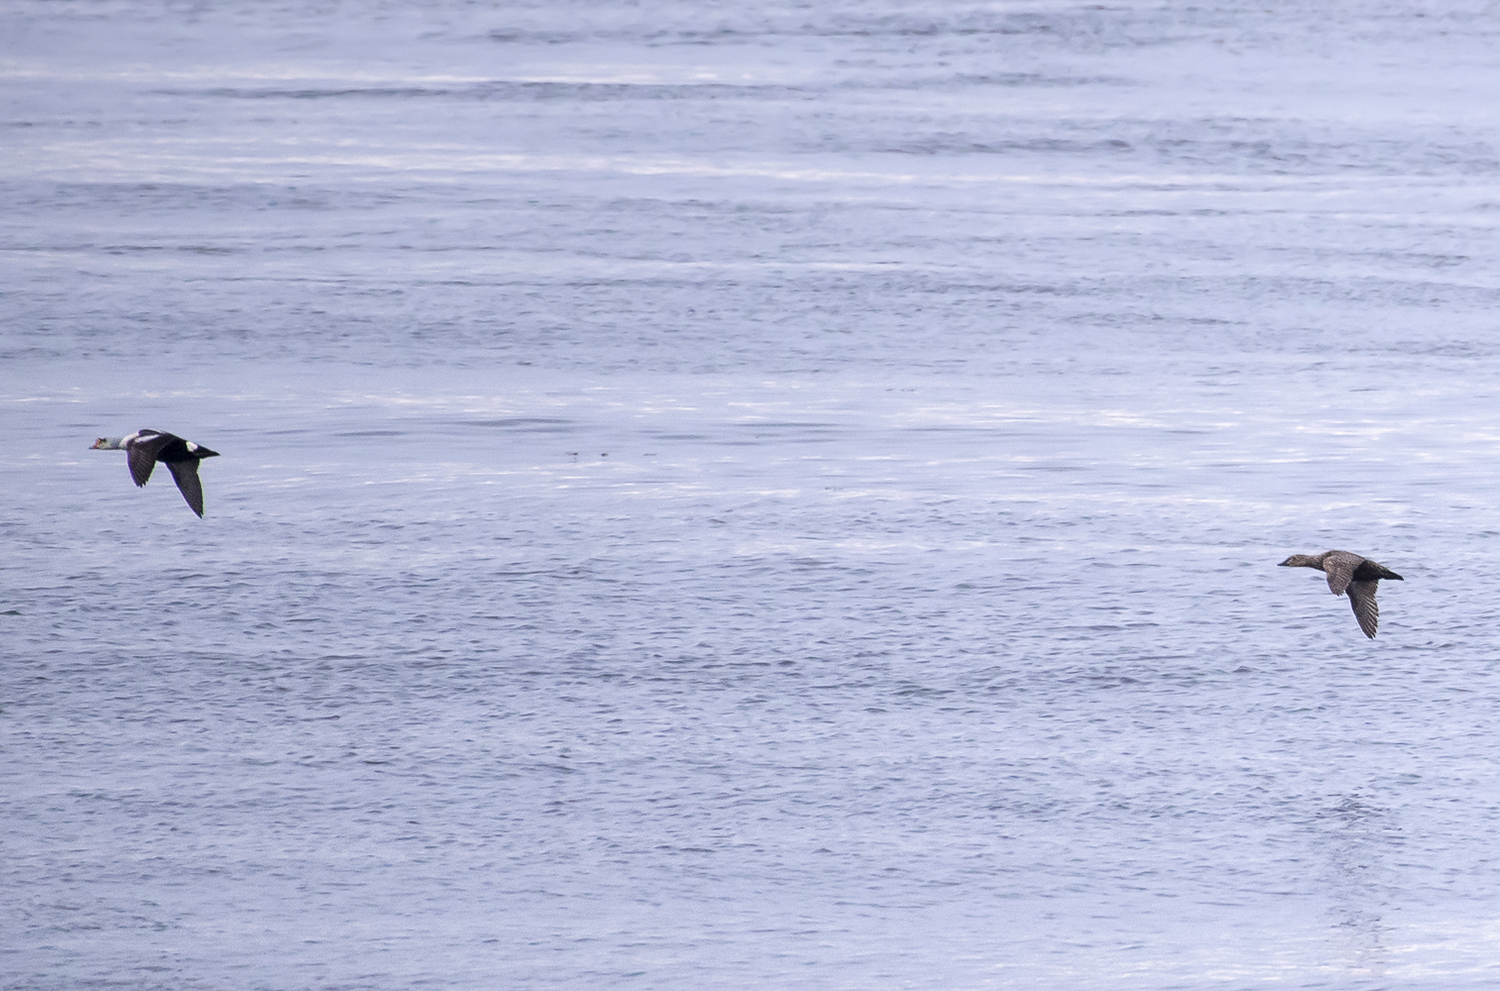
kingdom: Animalia
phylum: Chordata
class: Aves
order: Anseriformes
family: Anatidae
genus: Somateria
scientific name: Somateria spectabilis
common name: King eider
